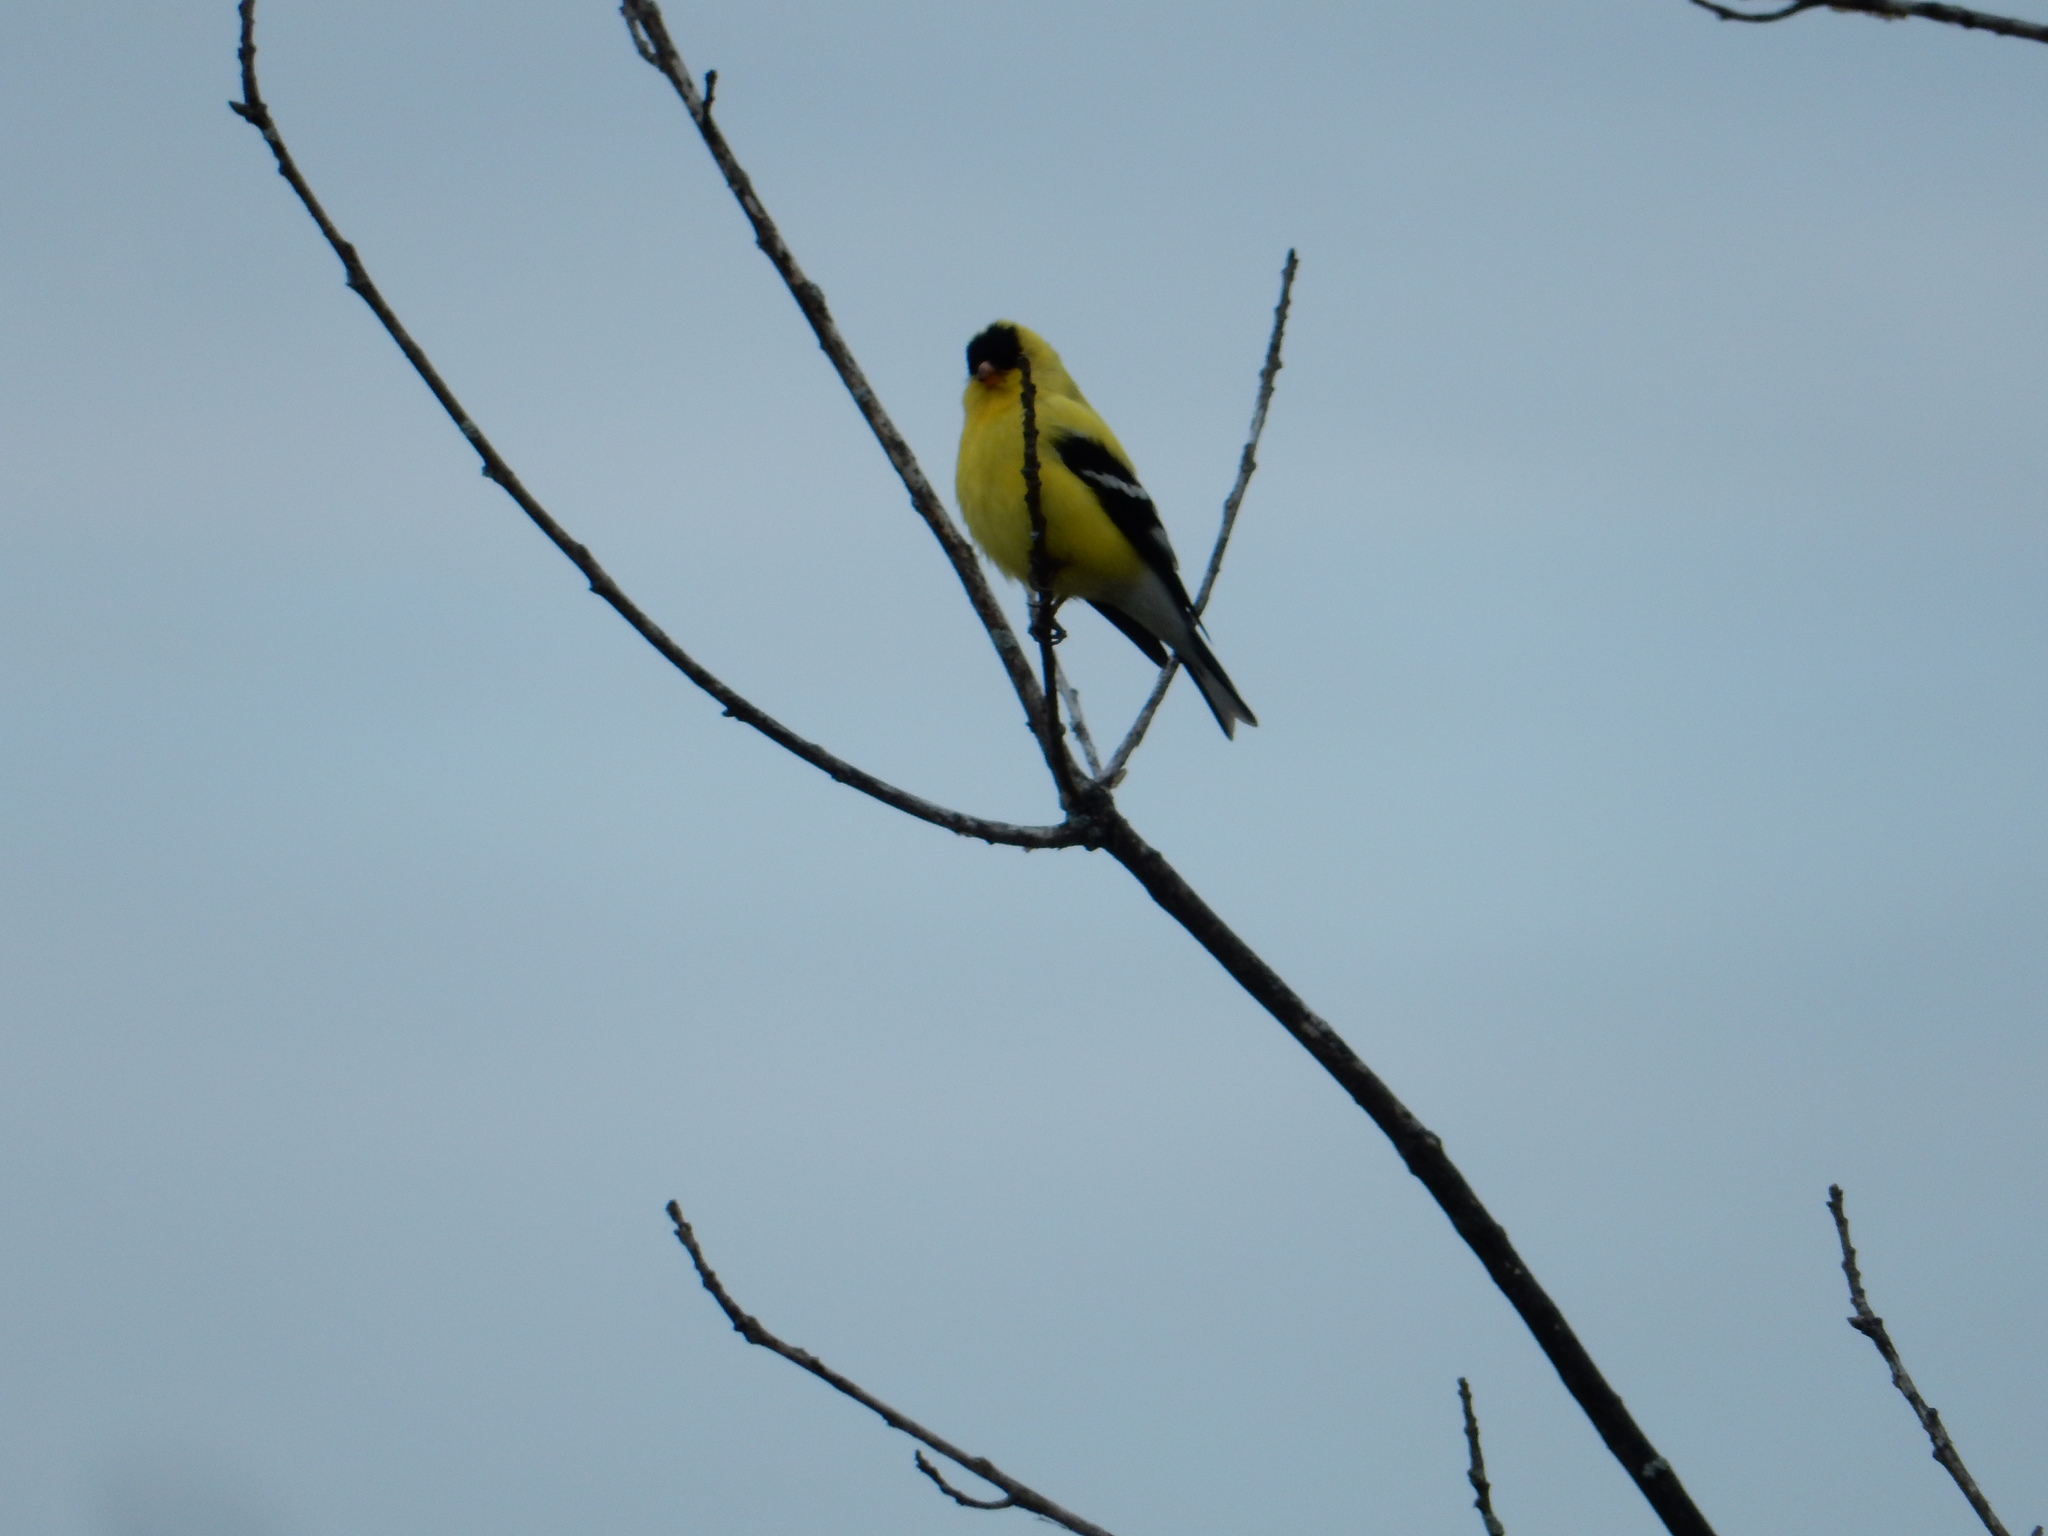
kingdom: Animalia
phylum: Chordata
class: Aves
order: Passeriformes
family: Fringillidae
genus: Spinus
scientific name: Spinus tristis
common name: American goldfinch
